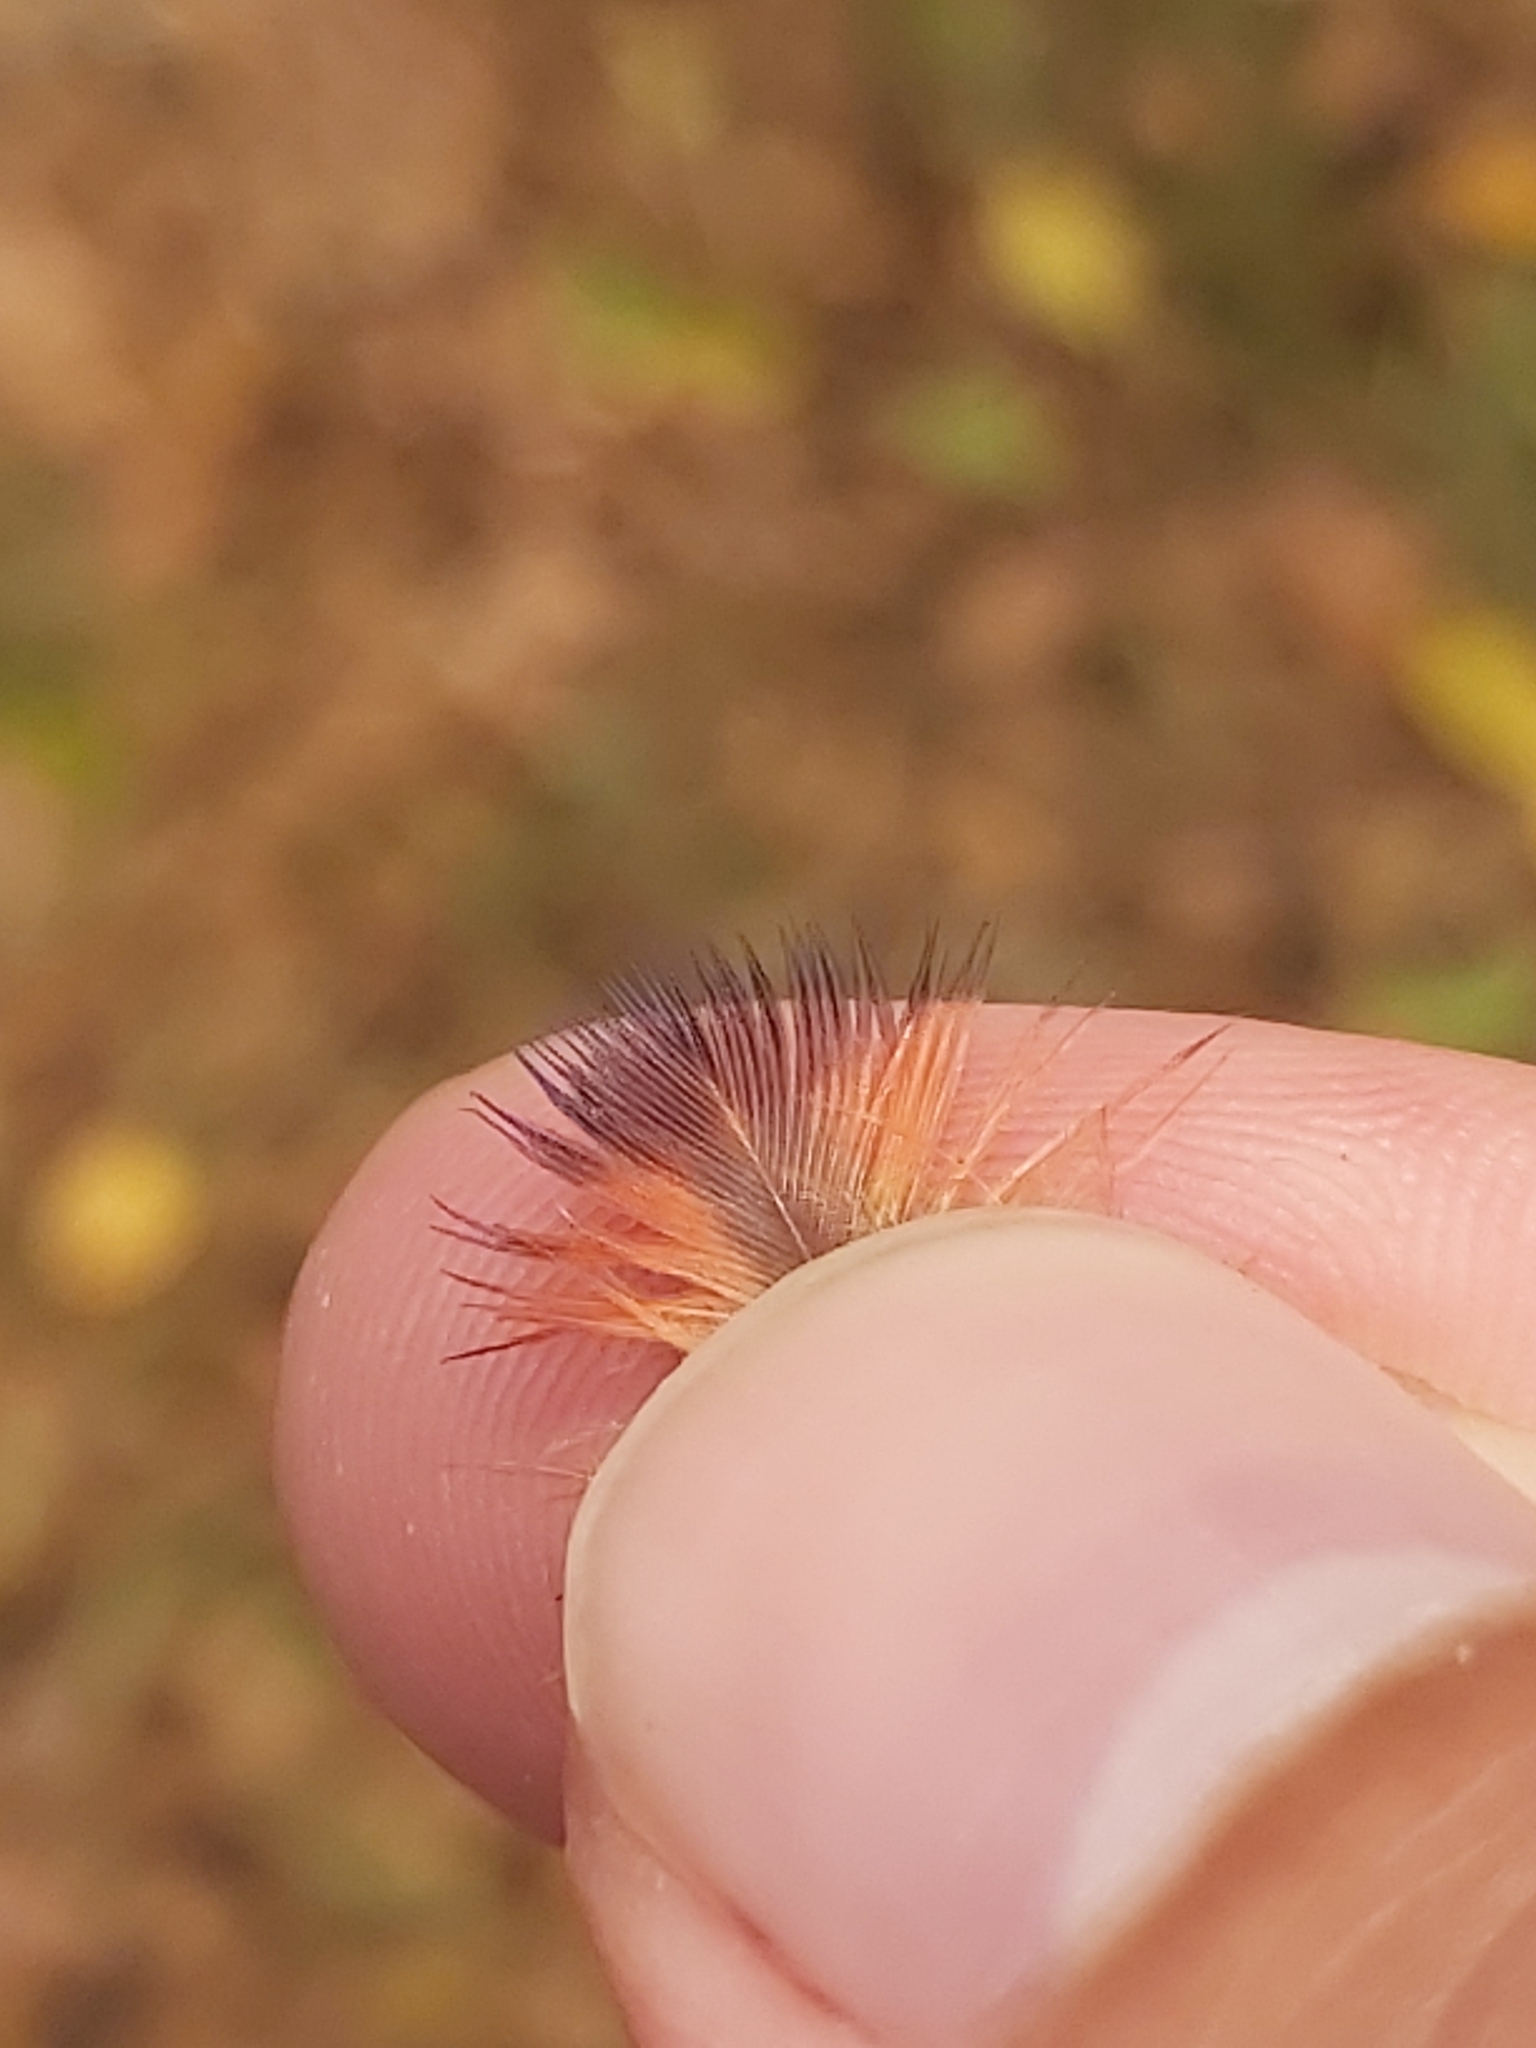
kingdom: Animalia
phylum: Chordata
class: Aves
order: Psittaciformes
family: Psittacidae
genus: Trichoglossus
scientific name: Trichoglossus haematodus
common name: Coconut lorikeet
